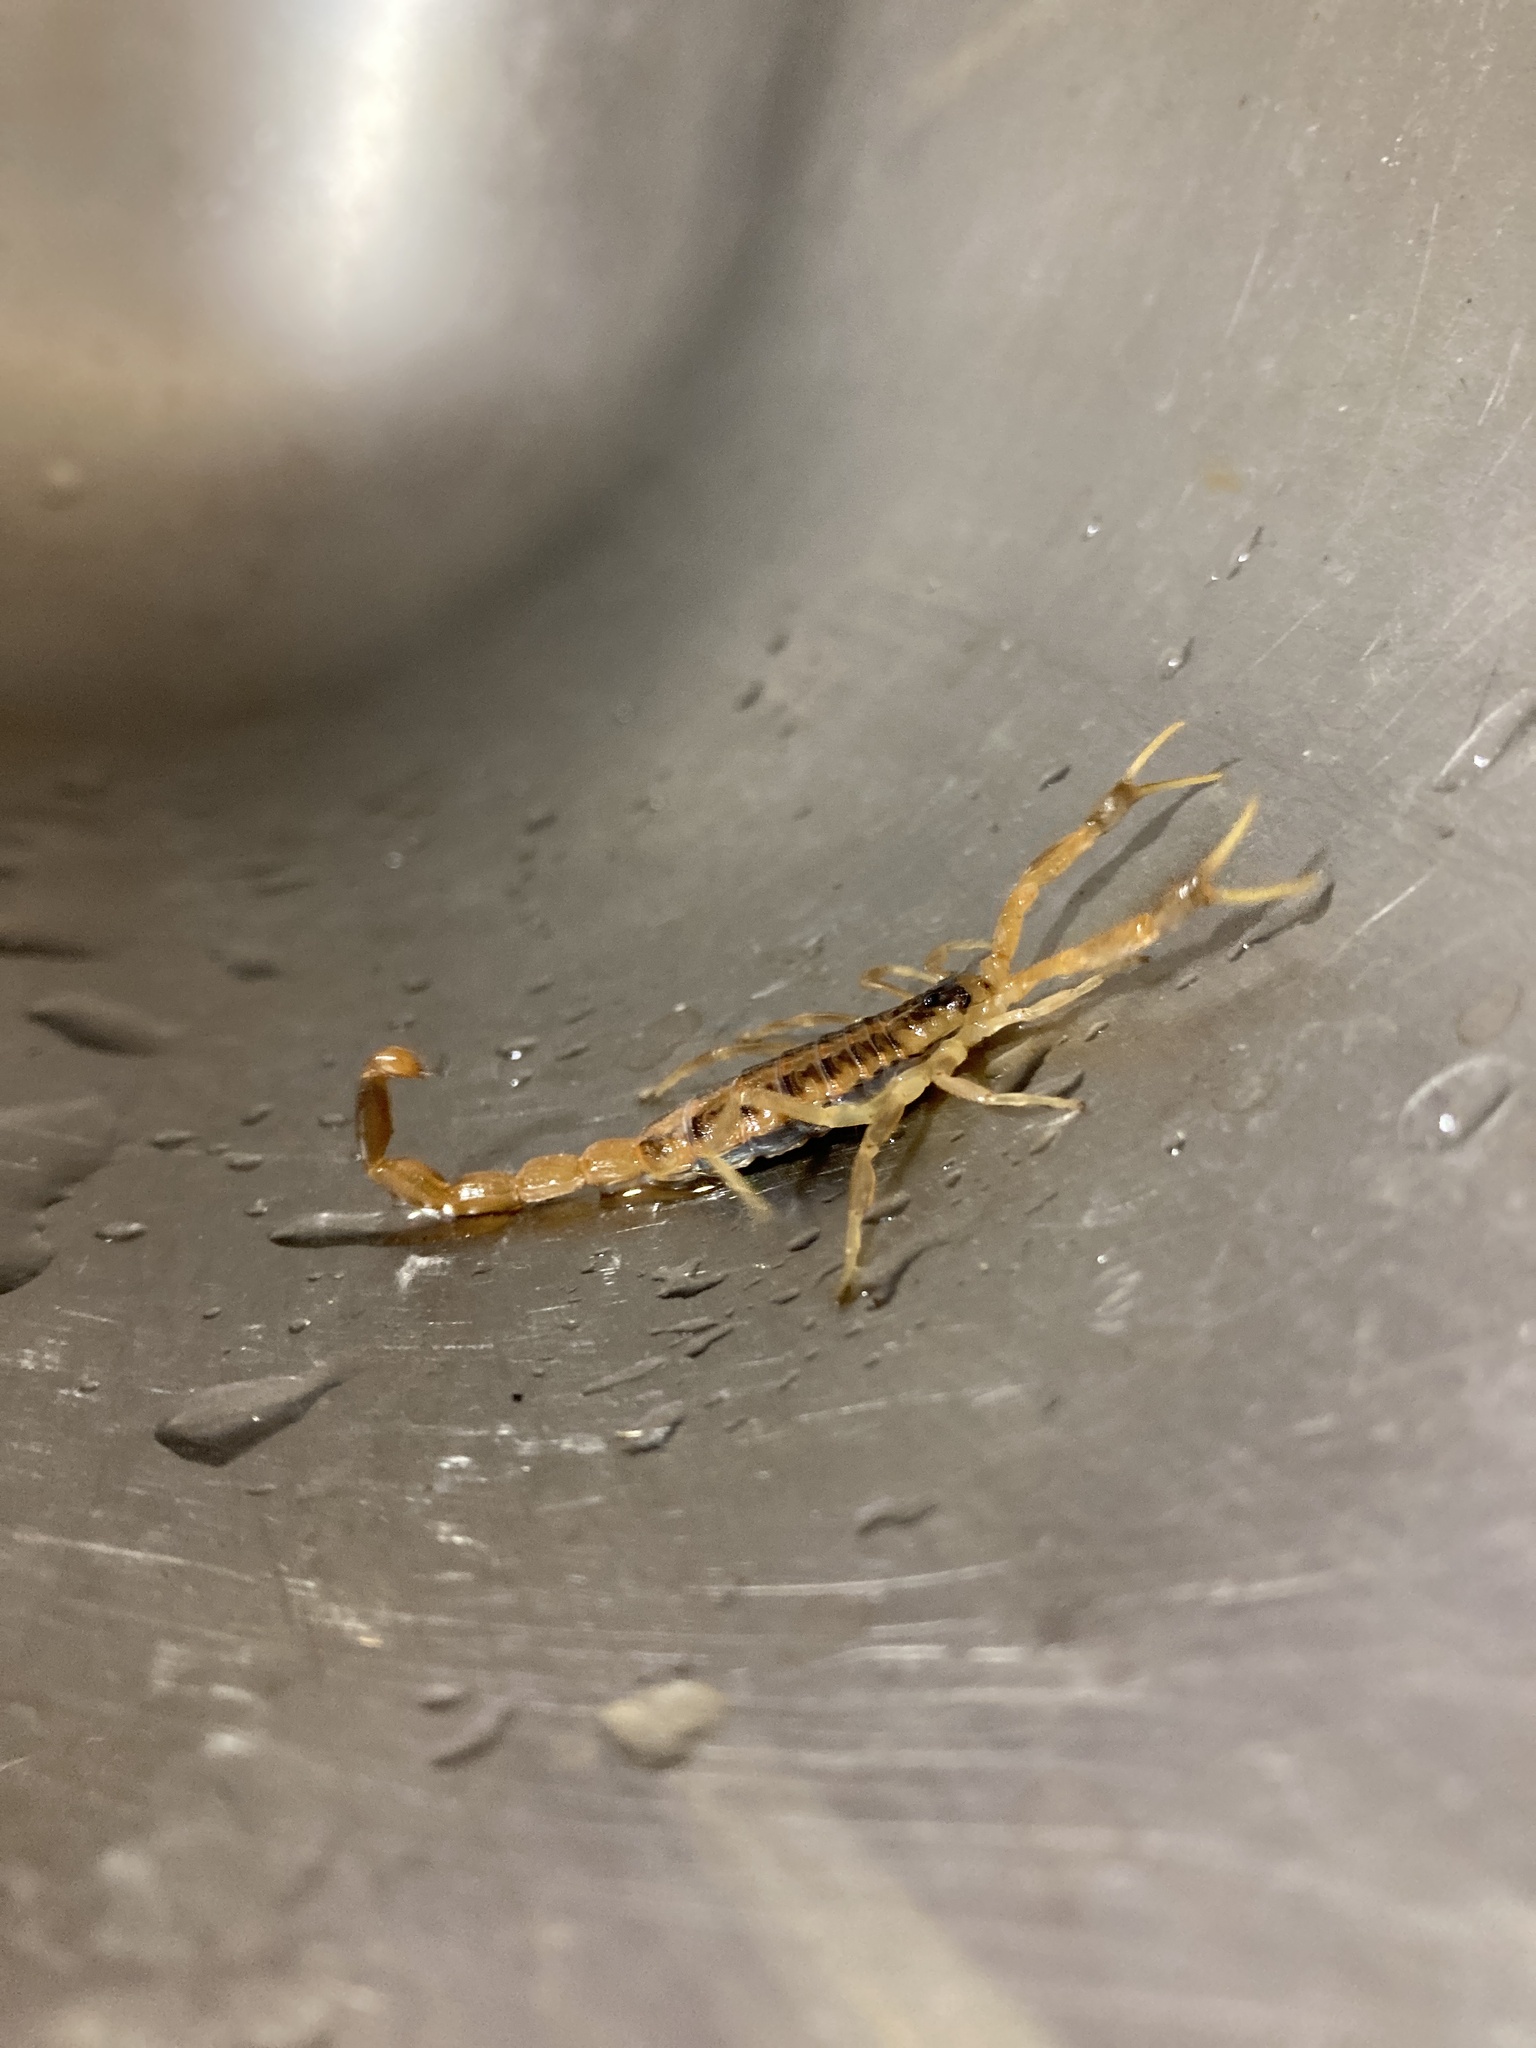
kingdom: Animalia
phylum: Arthropoda
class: Arachnida
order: Scorpiones
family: Buthidae
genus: Centruroides
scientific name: Centruroides vittatus
